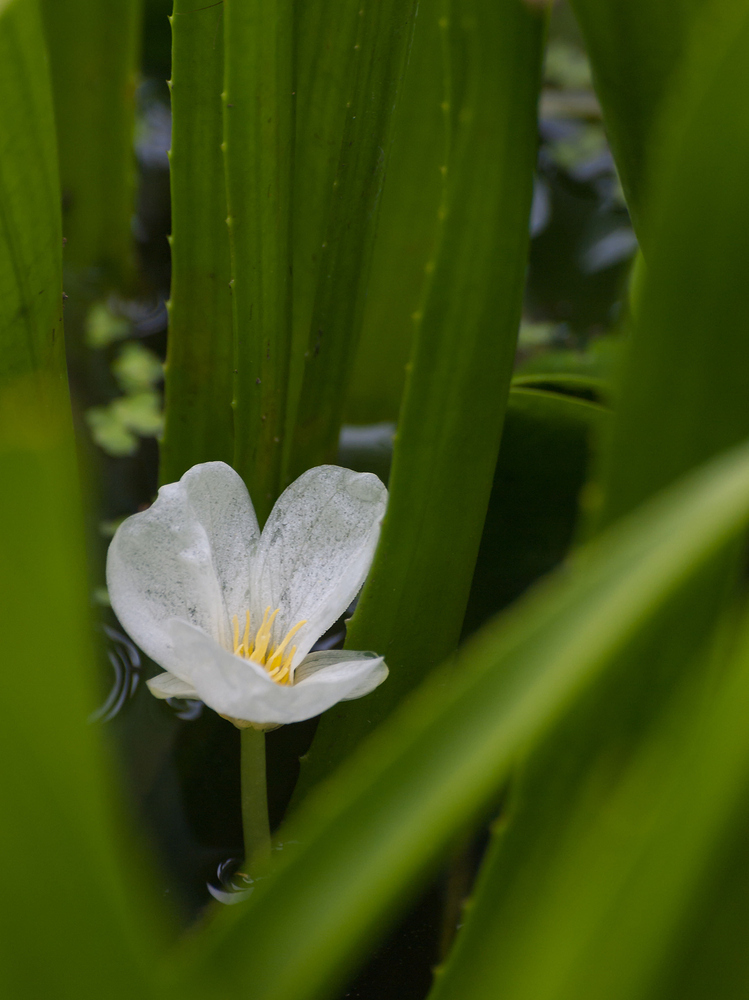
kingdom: Plantae
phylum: Tracheophyta
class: Liliopsida
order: Alismatales
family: Hydrocharitaceae
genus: Stratiotes
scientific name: Stratiotes aloides
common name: Water-soldier
